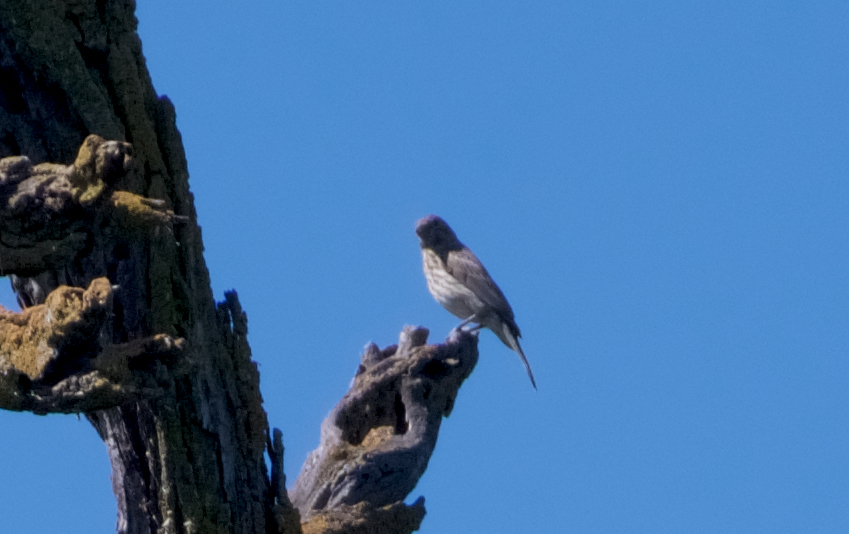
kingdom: Animalia
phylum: Chordata
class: Aves
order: Passeriformes
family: Fringillidae
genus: Haemorhous
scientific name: Haemorhous mexicanus
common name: House finch
